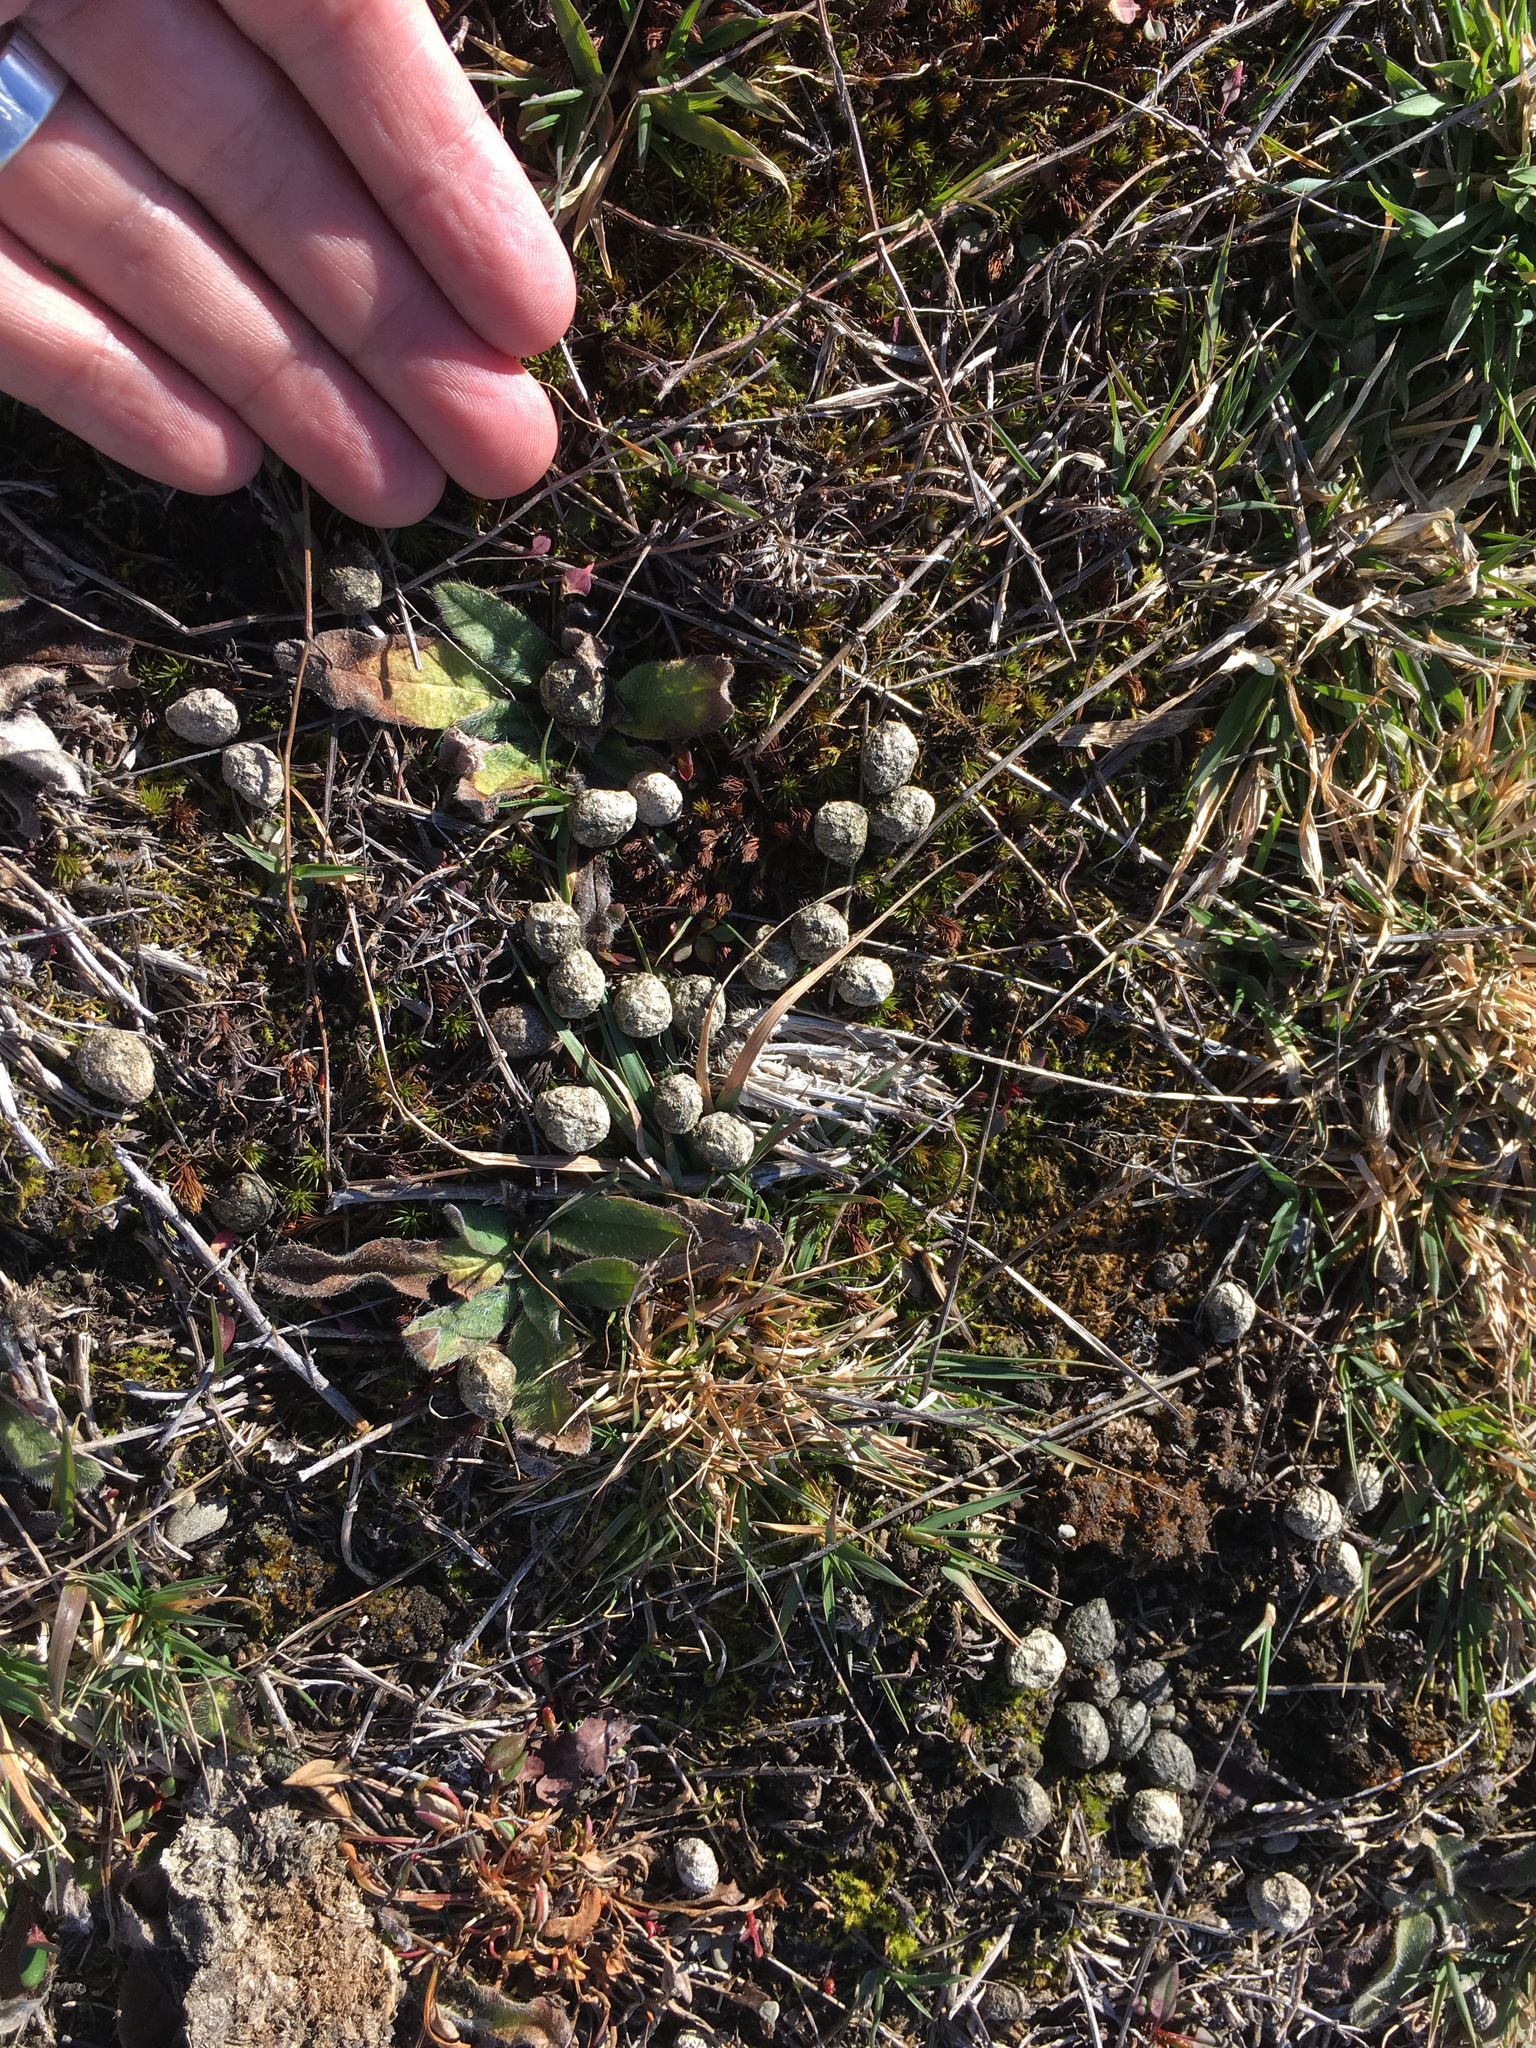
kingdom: Animalia
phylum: Chordata
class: Mammalia
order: Lagomorpha
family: Leporidae
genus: Oryctolagus
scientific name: Oryctolagus cuniculus
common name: European rabbit
